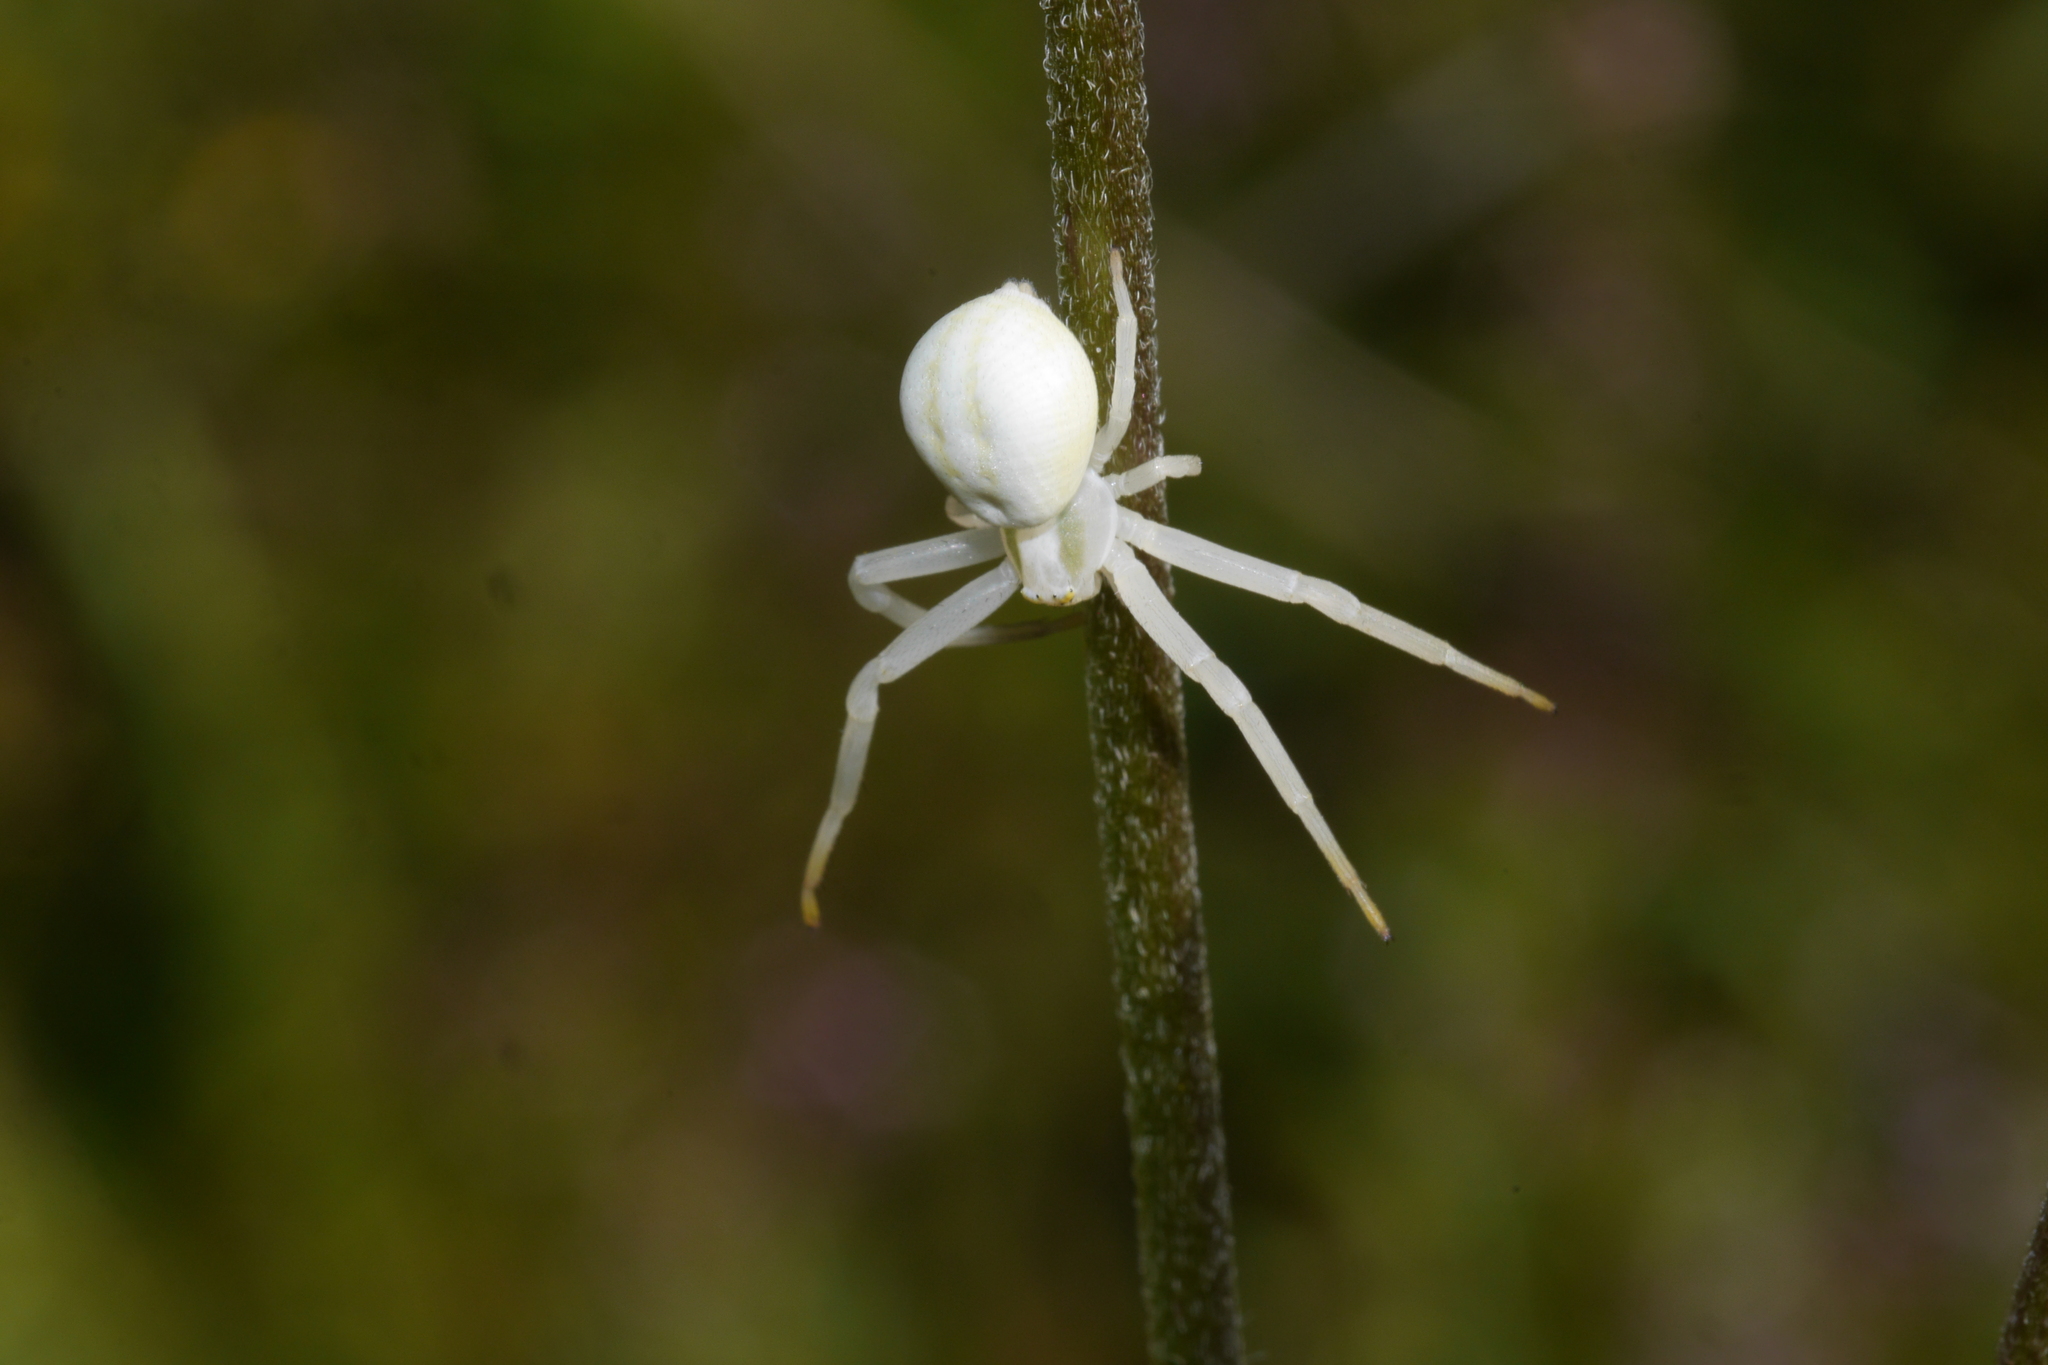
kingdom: Animalia
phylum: Arthropoda
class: Arachnida
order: Araneae
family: Thomisidae
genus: Misumena
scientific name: Misumena vatia
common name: Goldenrod crab spider
